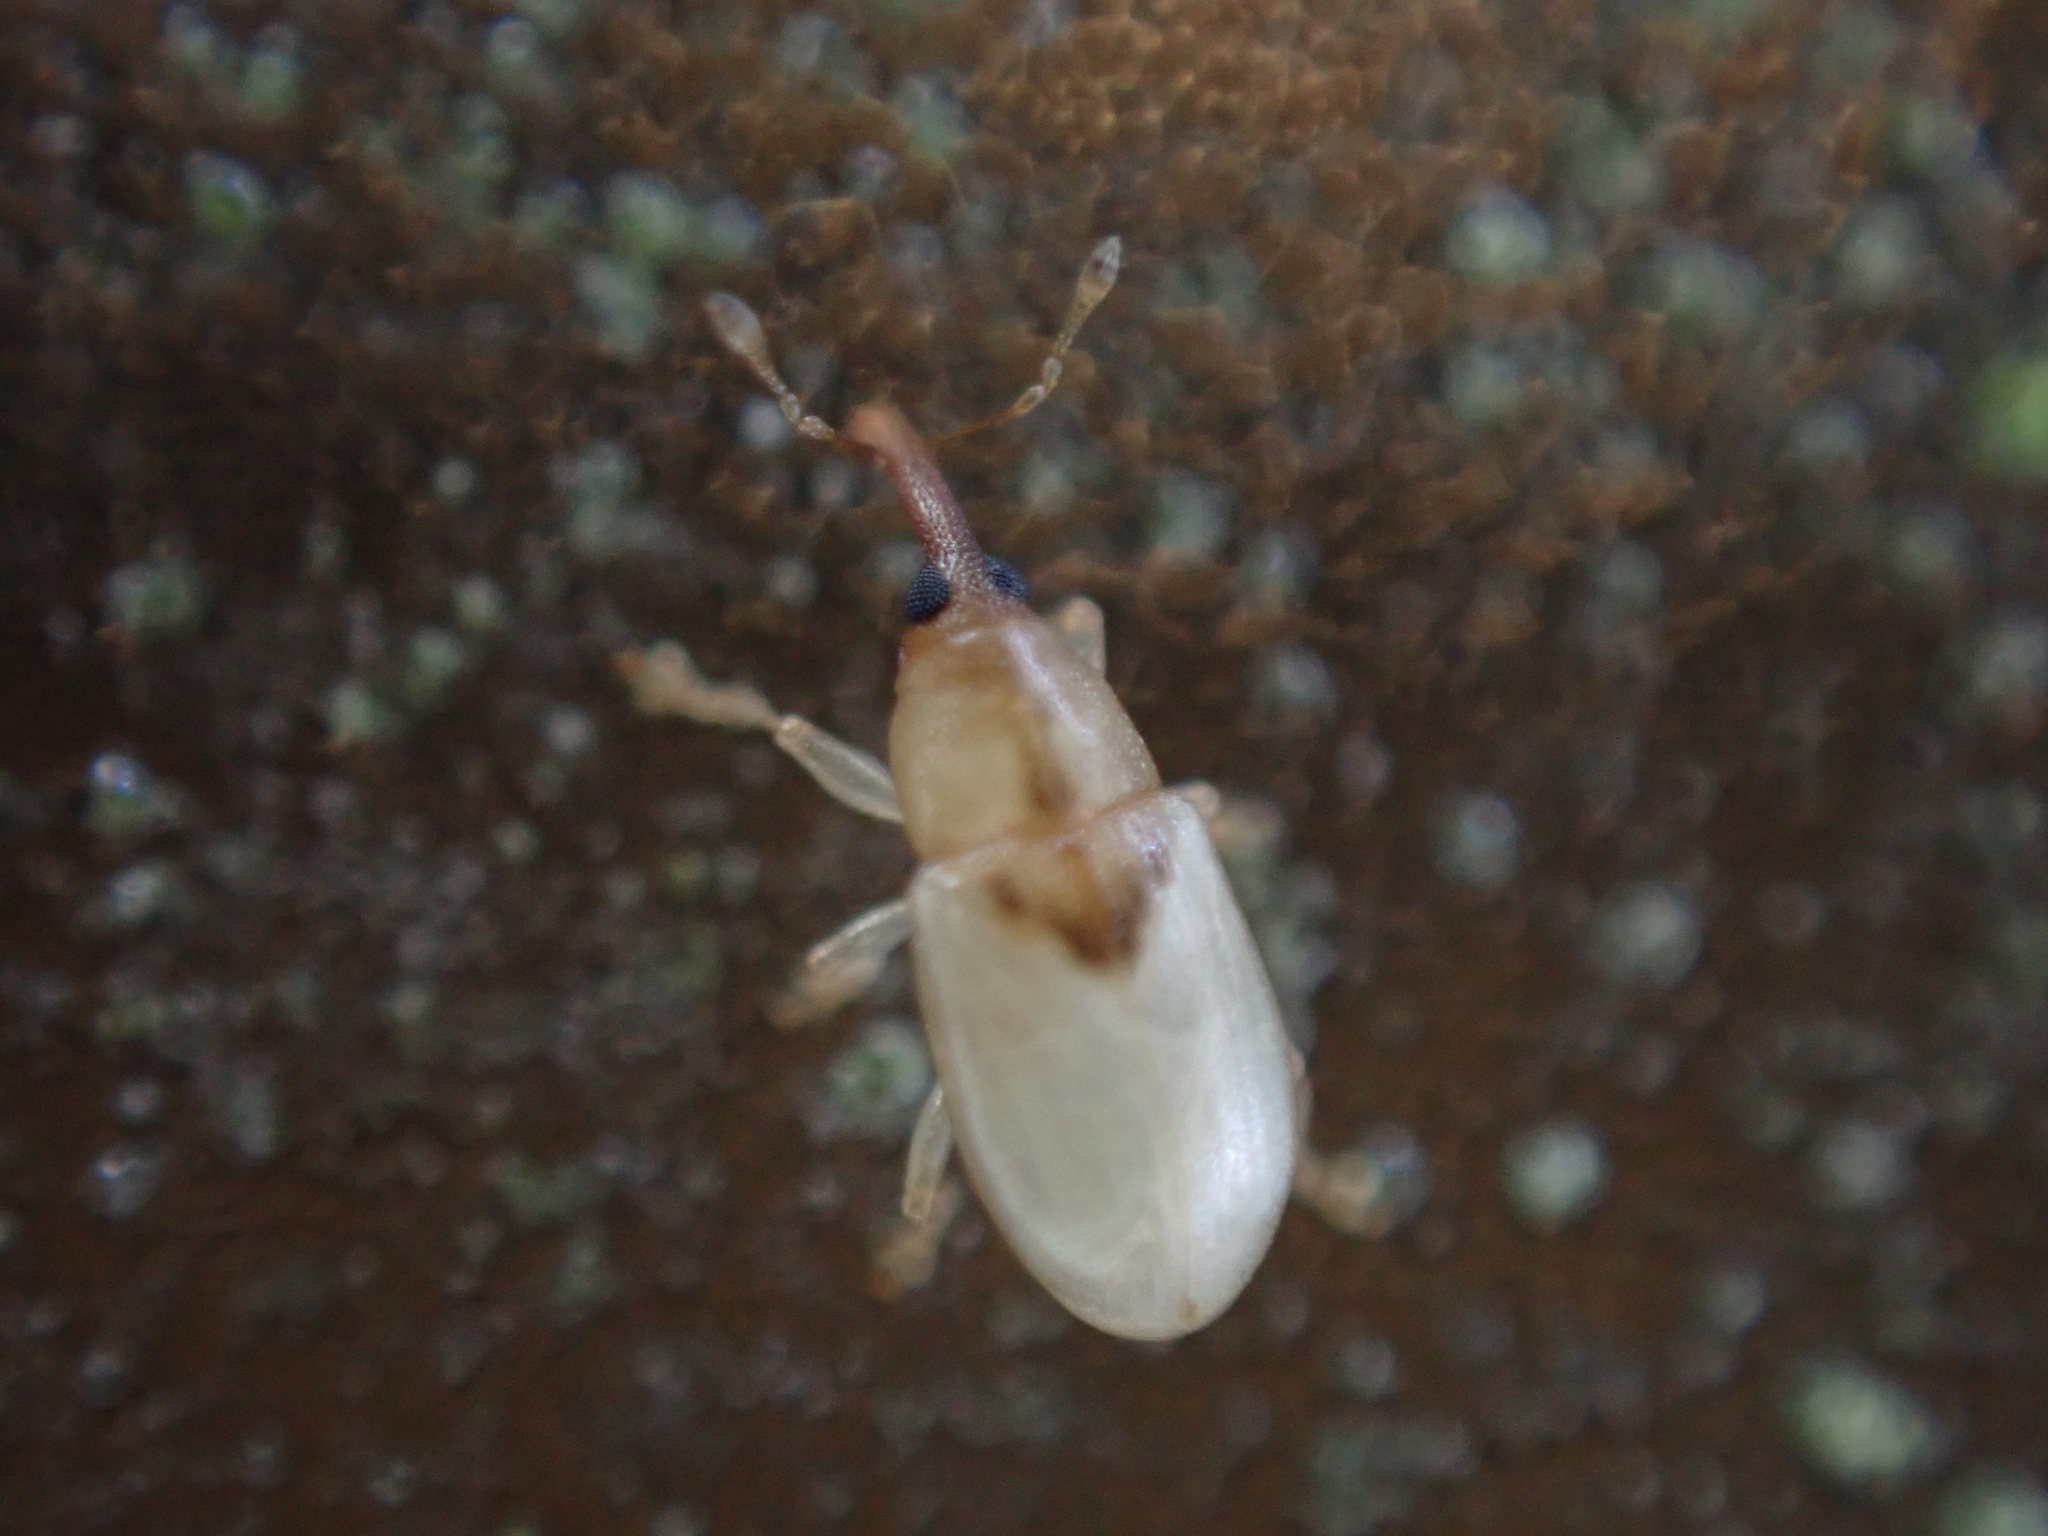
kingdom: Animalia
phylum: Arthropoda
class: Insecta
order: Coleoptera
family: Curculionidae
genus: Notolomus
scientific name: Notolomus basalis
